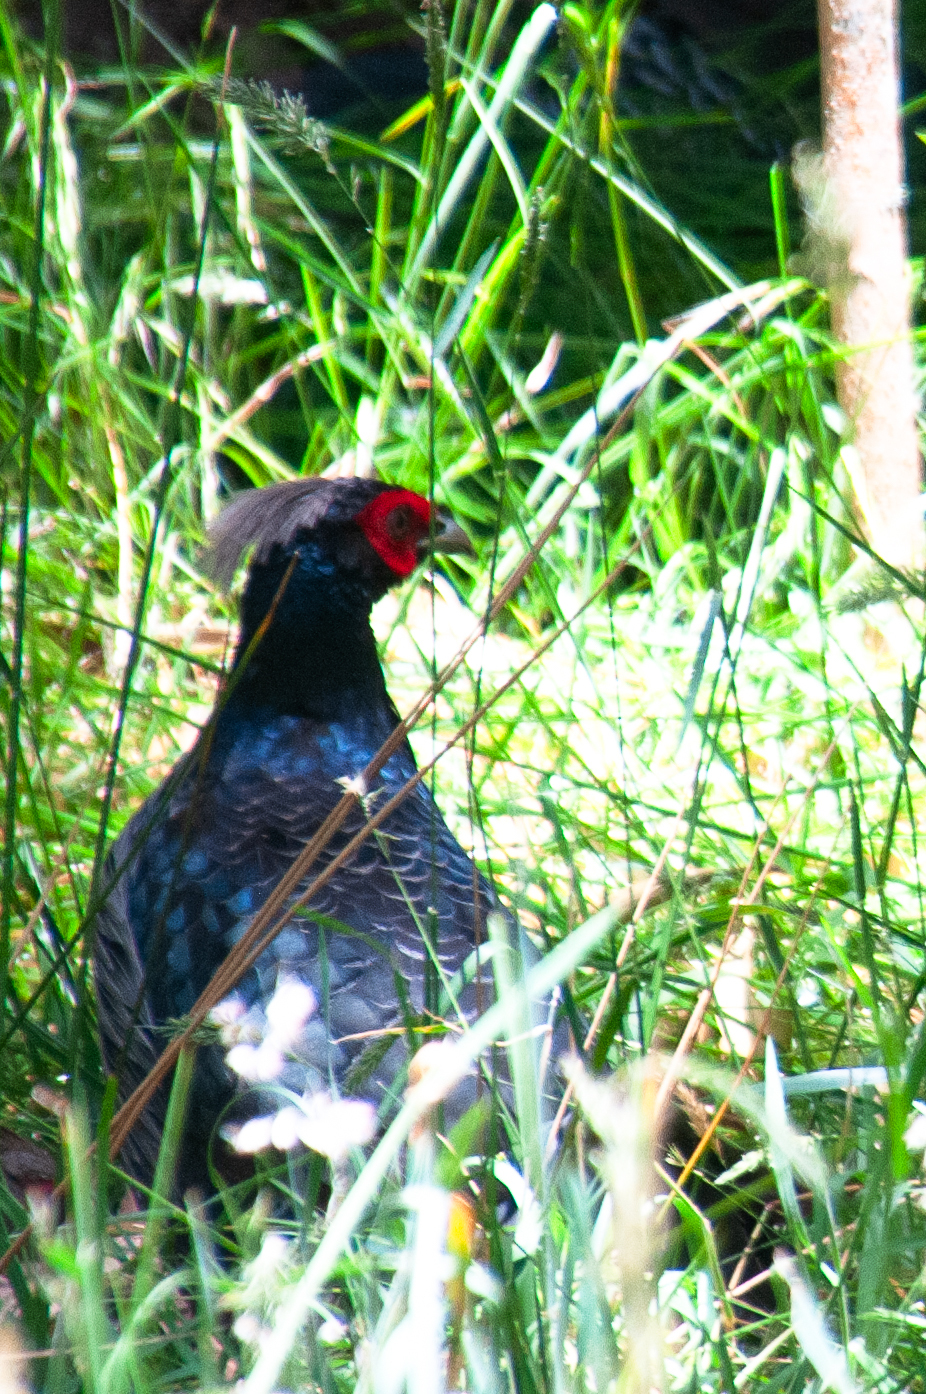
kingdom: Animalia
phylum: Chordata
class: Aves
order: Galliformes
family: Phasianidae
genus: Lophura
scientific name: Lophura leucomelanos
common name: Kalij pheasant
